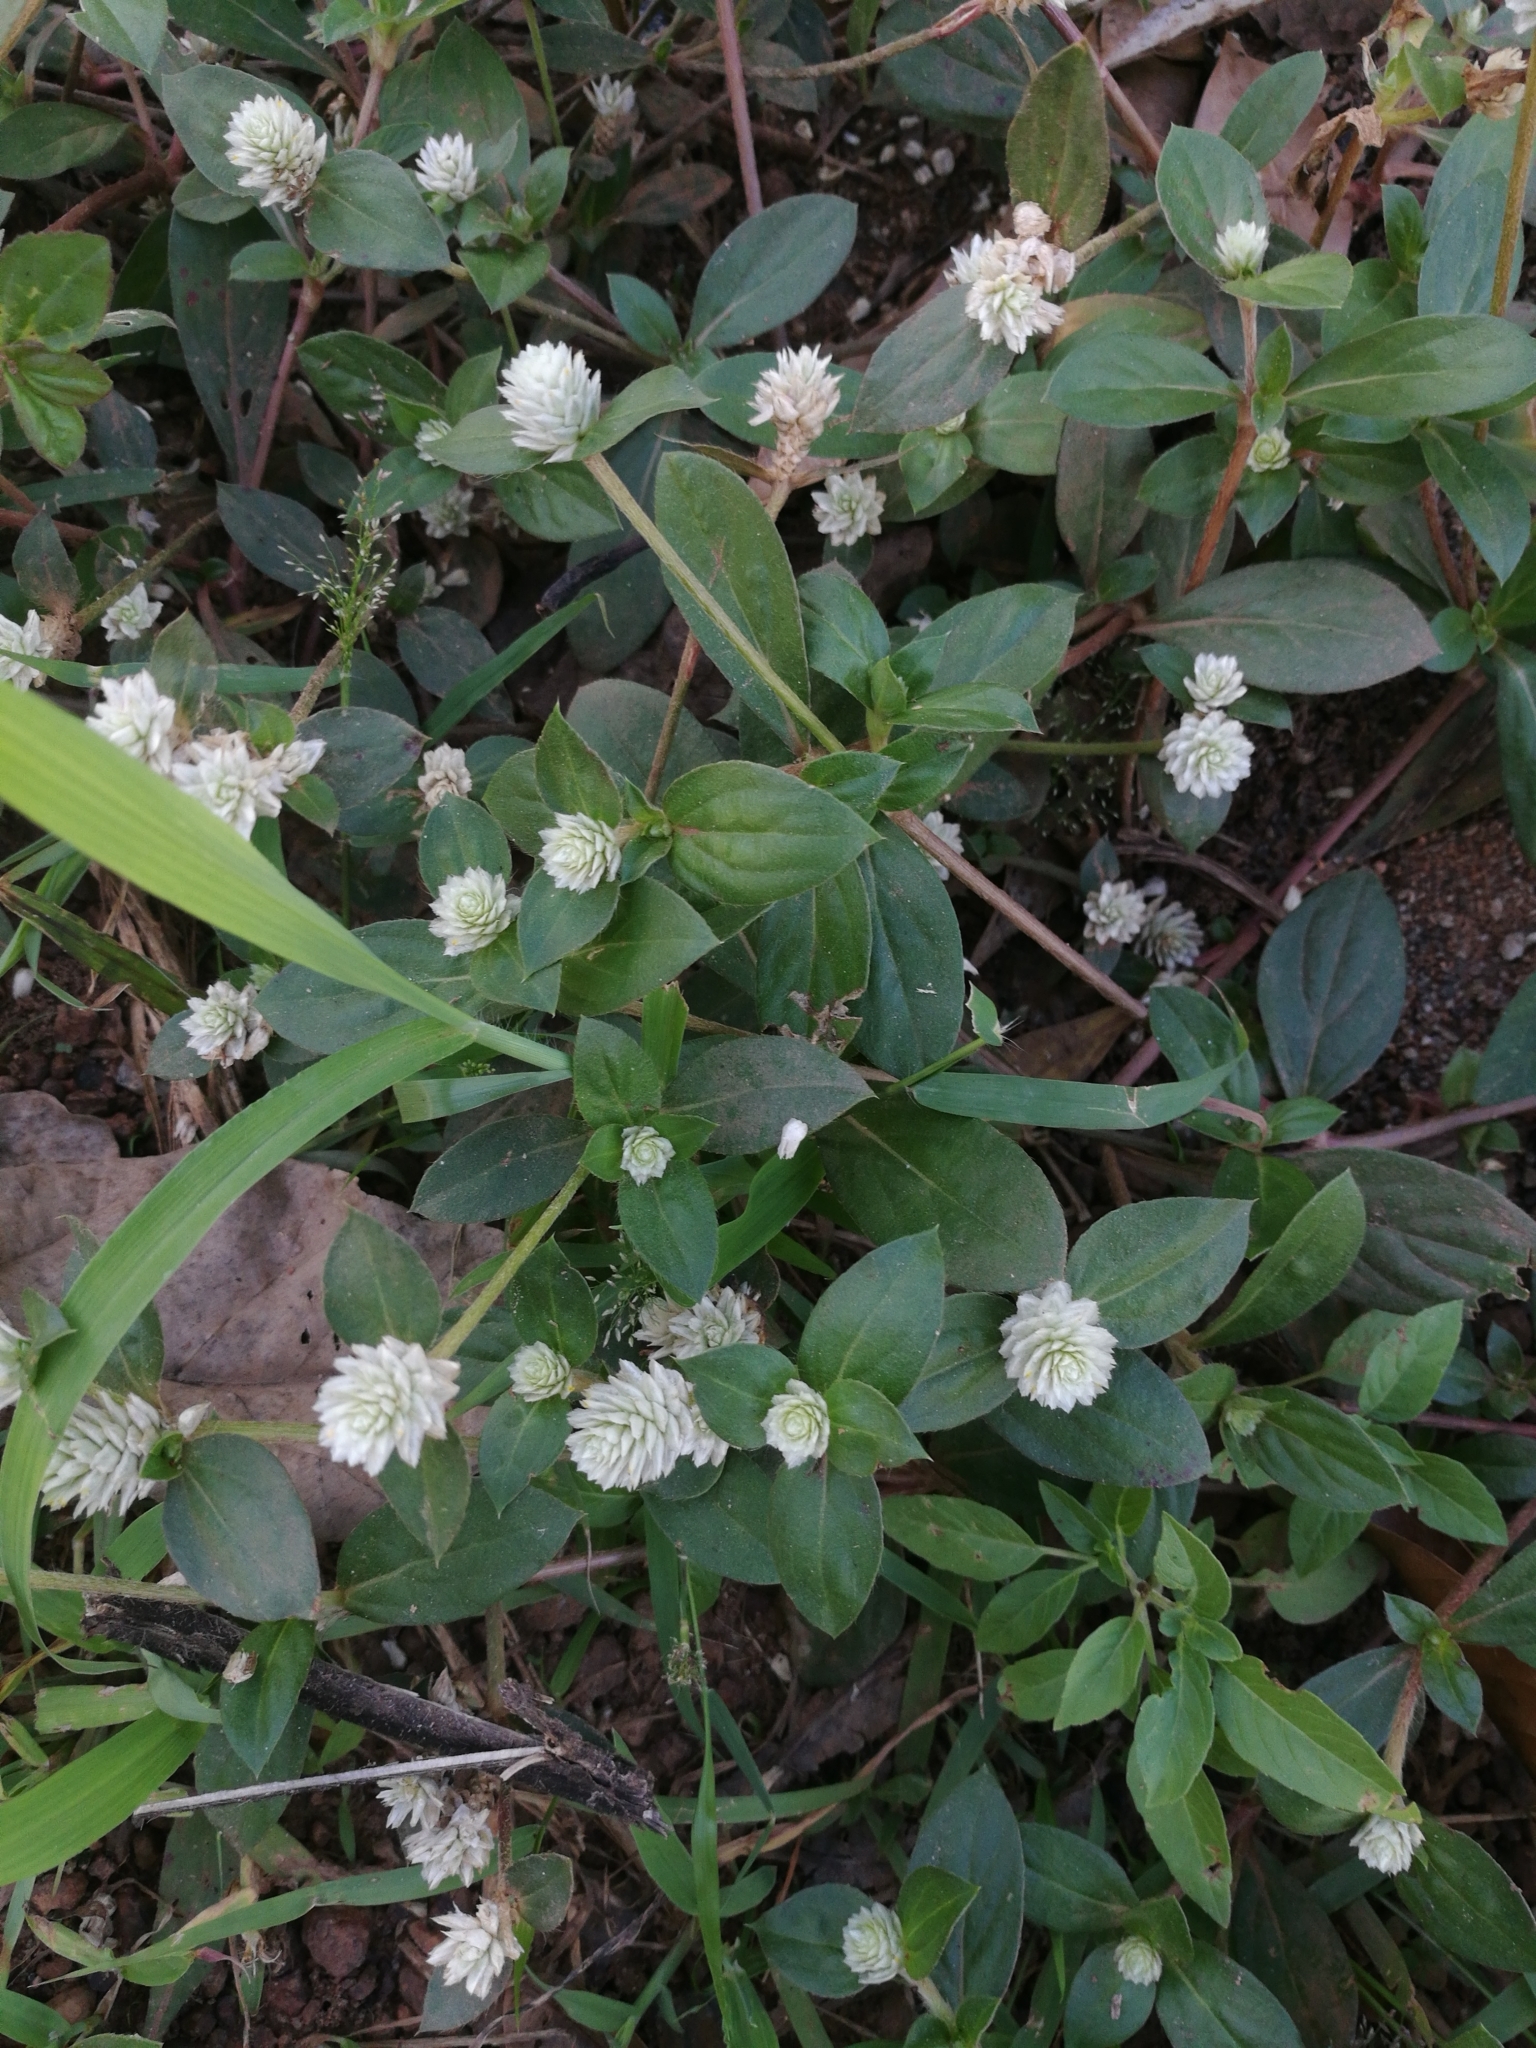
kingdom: Plantae
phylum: Tracheophyta
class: Magnoliopsida
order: Caryophyllales
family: Amaranthaceae
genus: Gomphrena
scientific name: Gomphrena celosioides
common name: Gomphrena-weed
